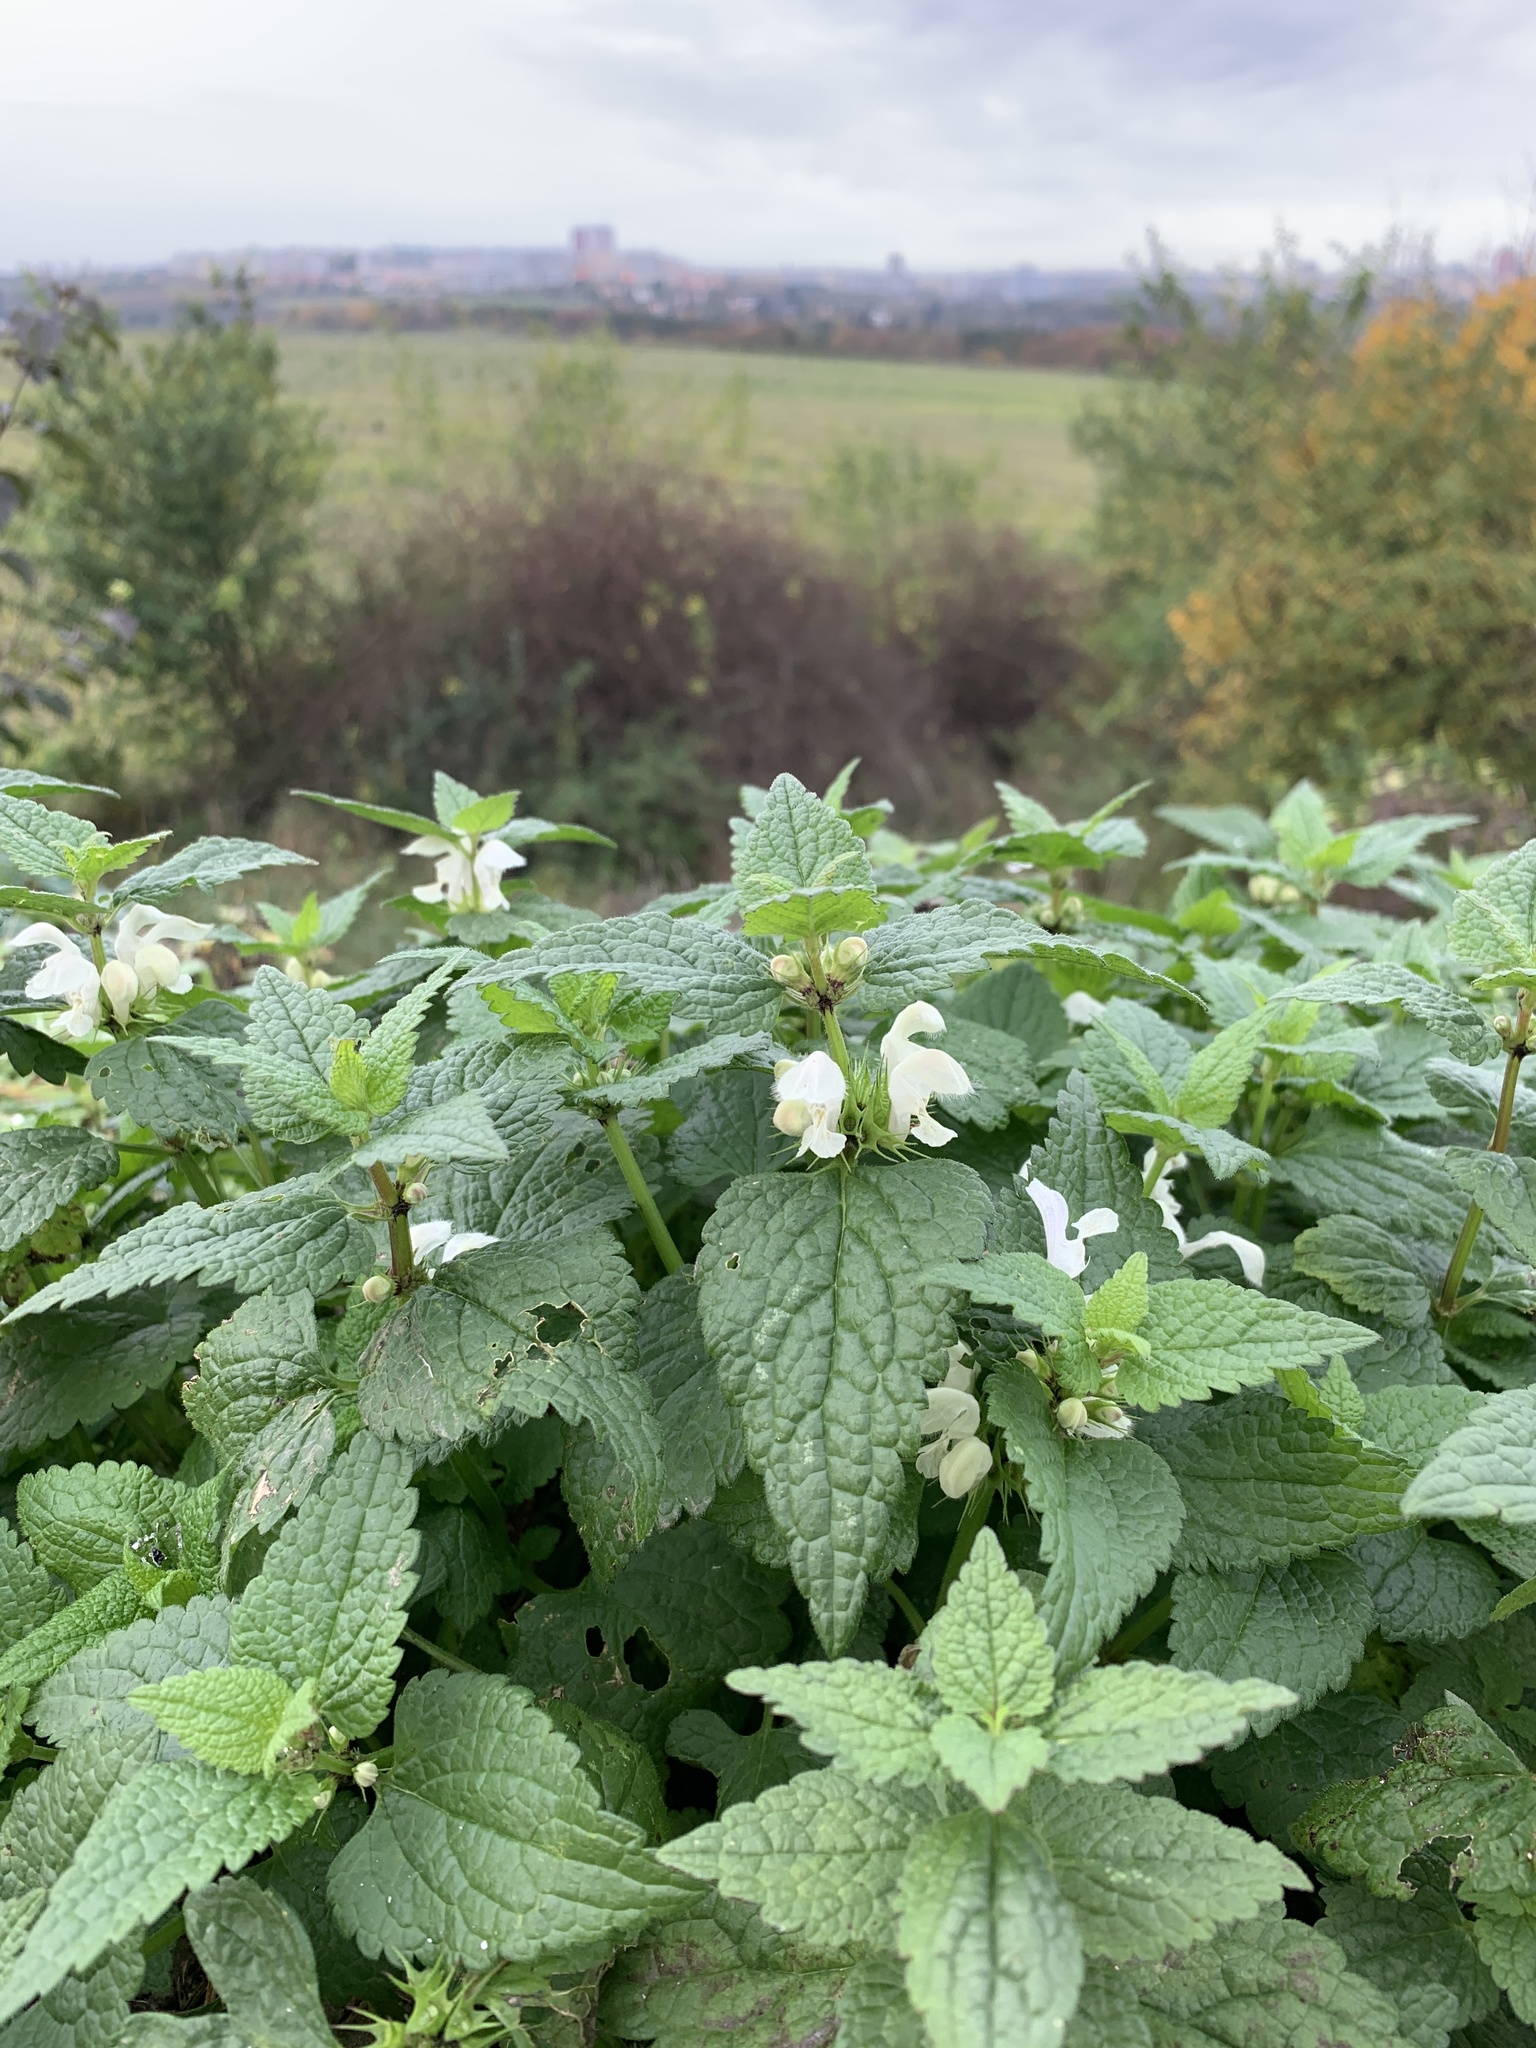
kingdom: Plantae
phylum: Tracheophyta
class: Magnoliopsida
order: Lamiales
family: Lamiaceae
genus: Lamium
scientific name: Lamium album
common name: White dead-nettle
